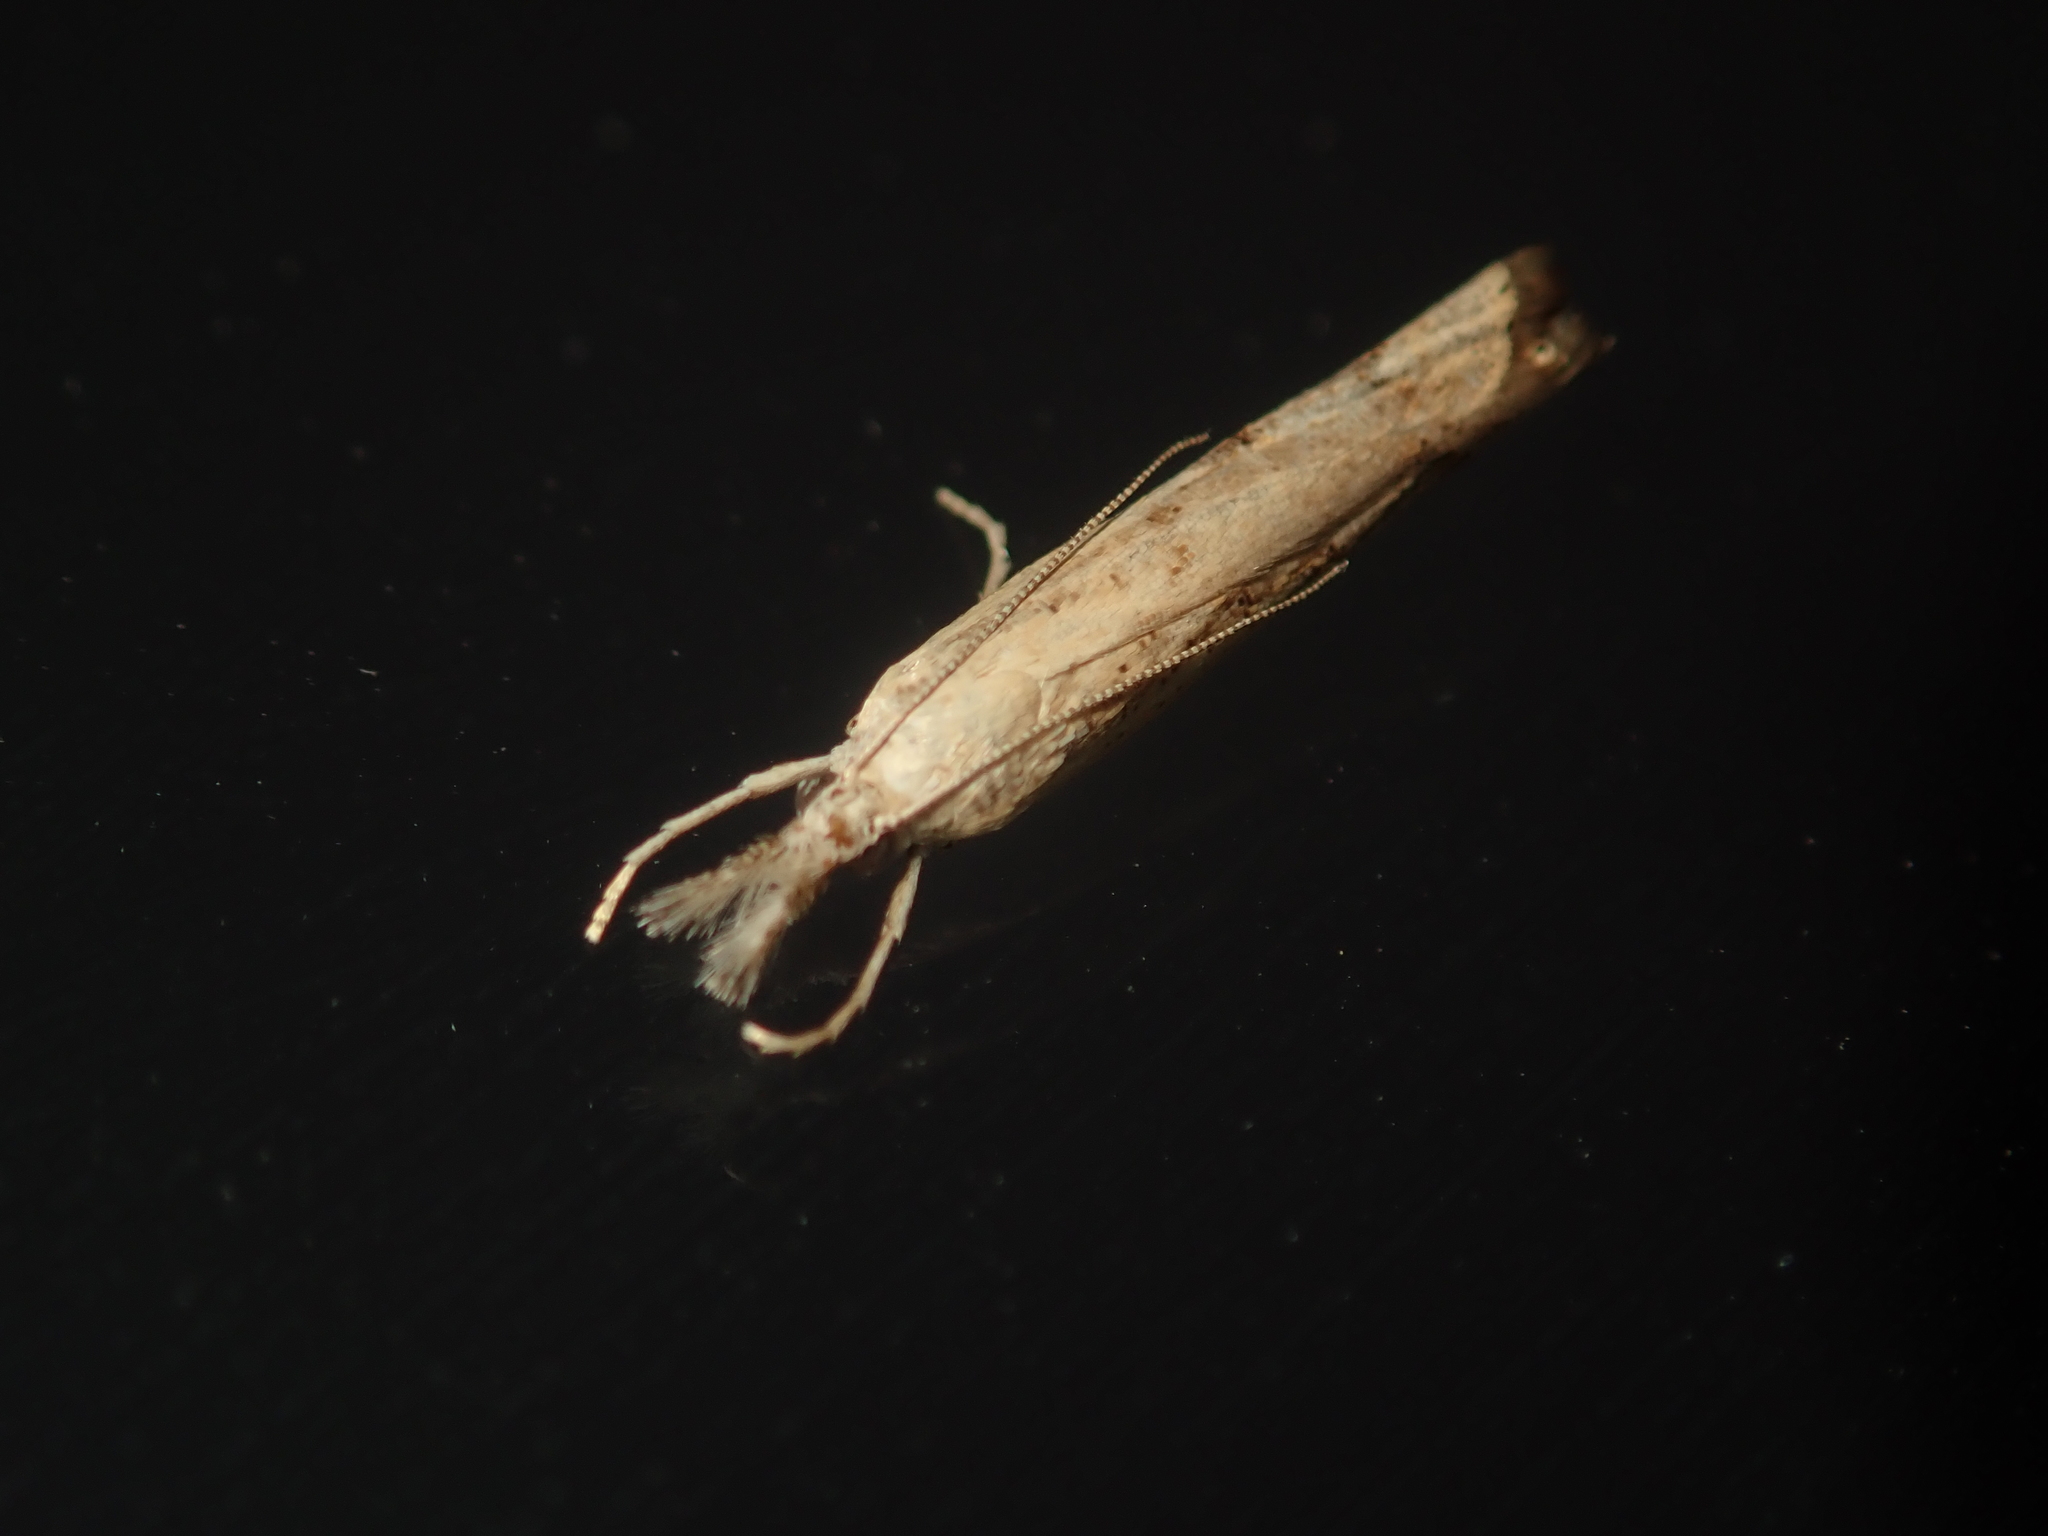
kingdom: Animalia
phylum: Arthropoda
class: Insecta
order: Lepidoptera
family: Crambidae
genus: Agriphila
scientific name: Agriphila geniculea
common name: Elbow-stripe grass-veneer
